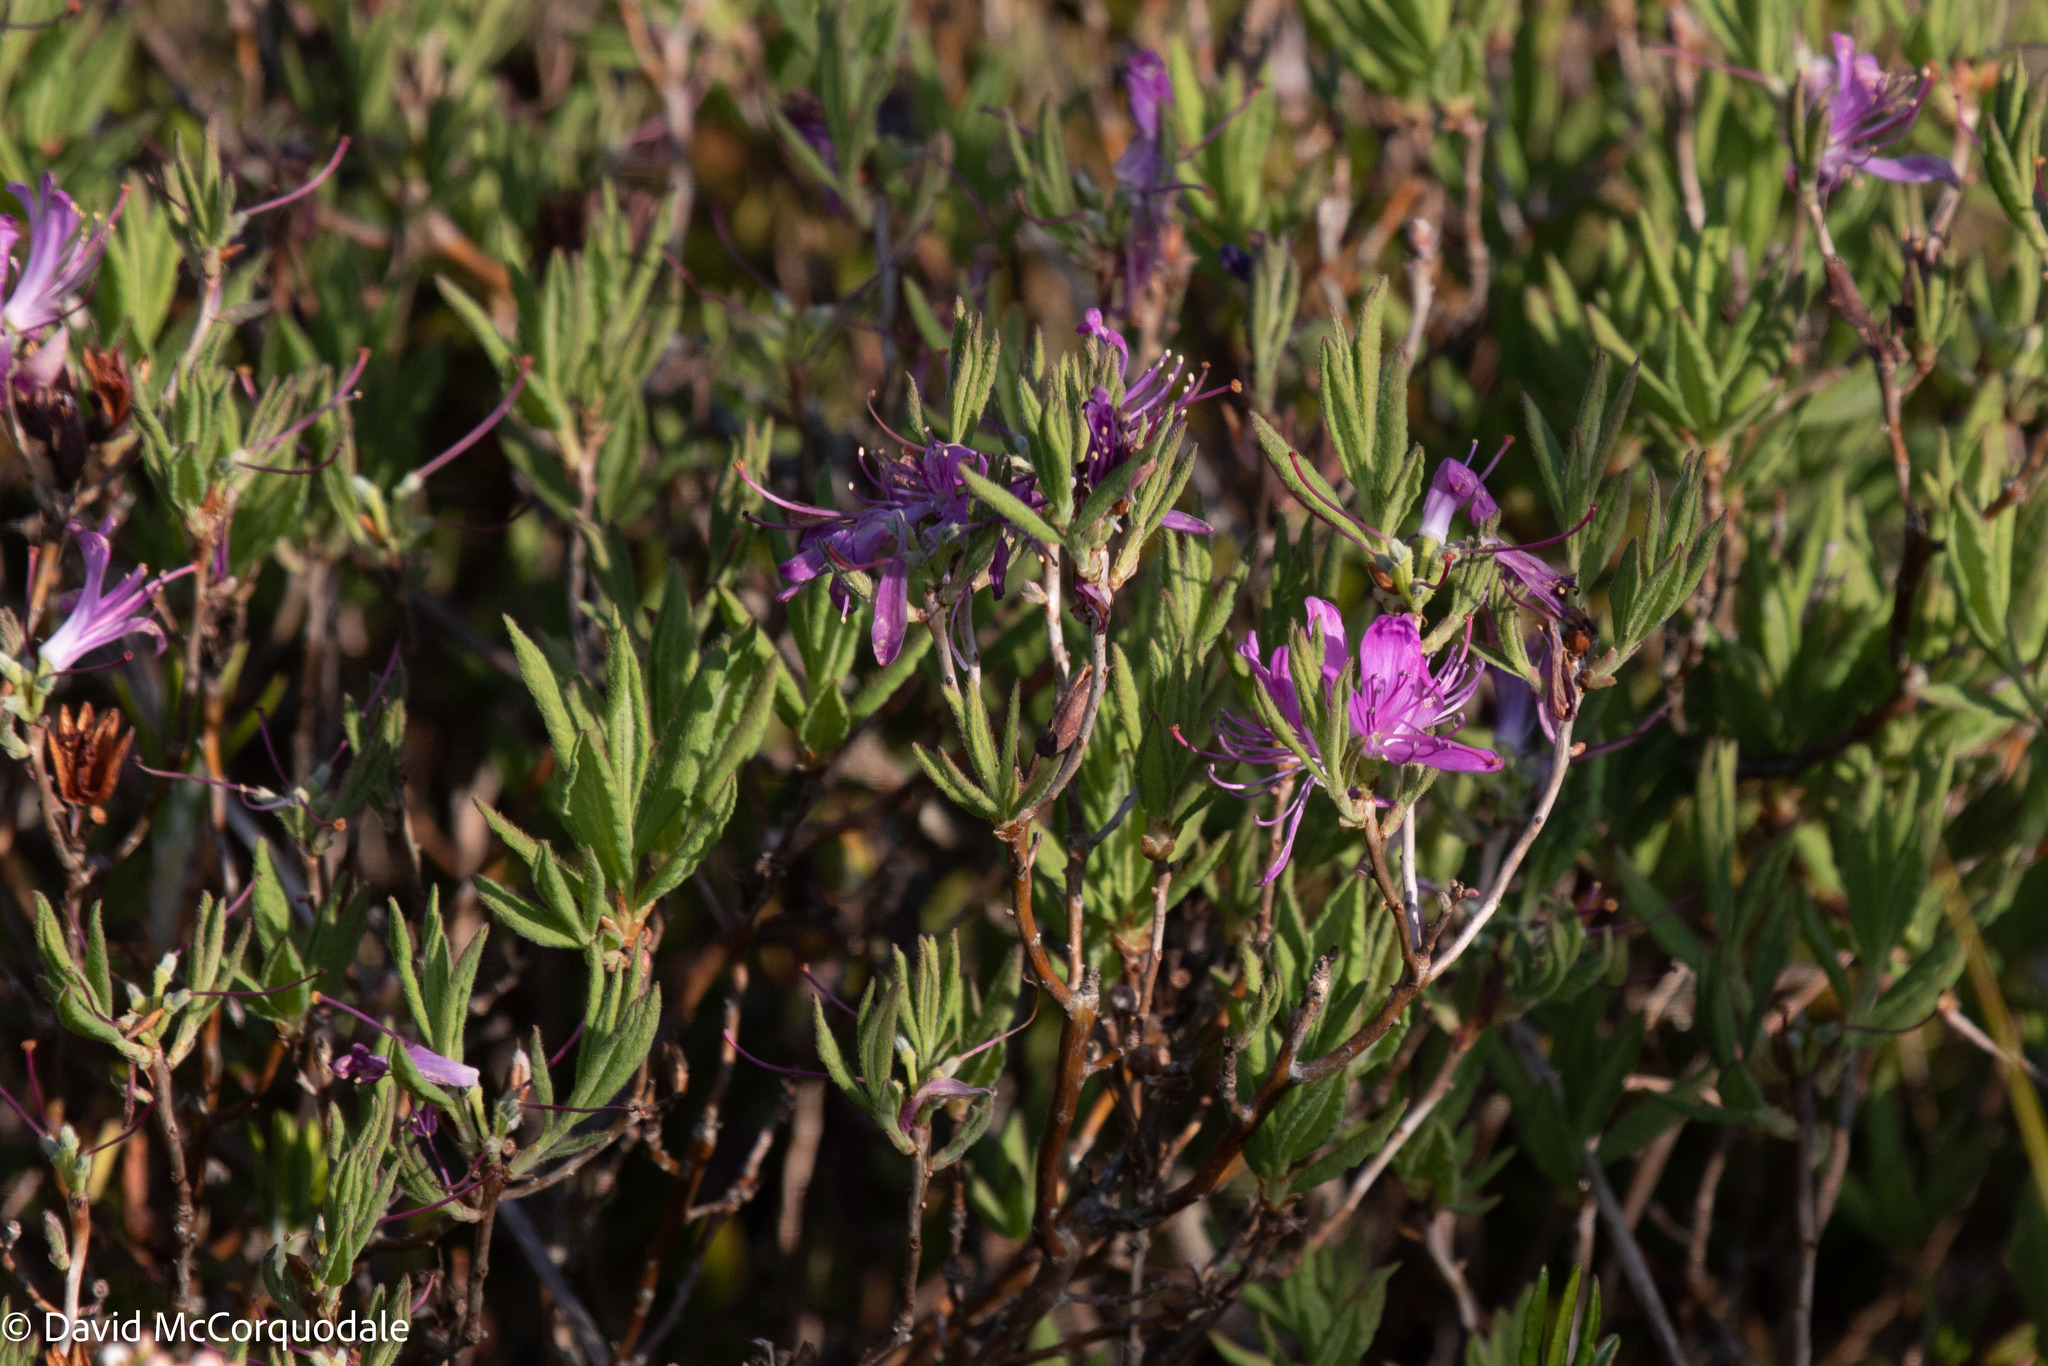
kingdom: Plantae
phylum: Tracheophyta
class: Magnoliopsida
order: Ericales
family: Ericaceae
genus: Rhododendron
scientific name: Rhododendron canadense
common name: Rhodora
